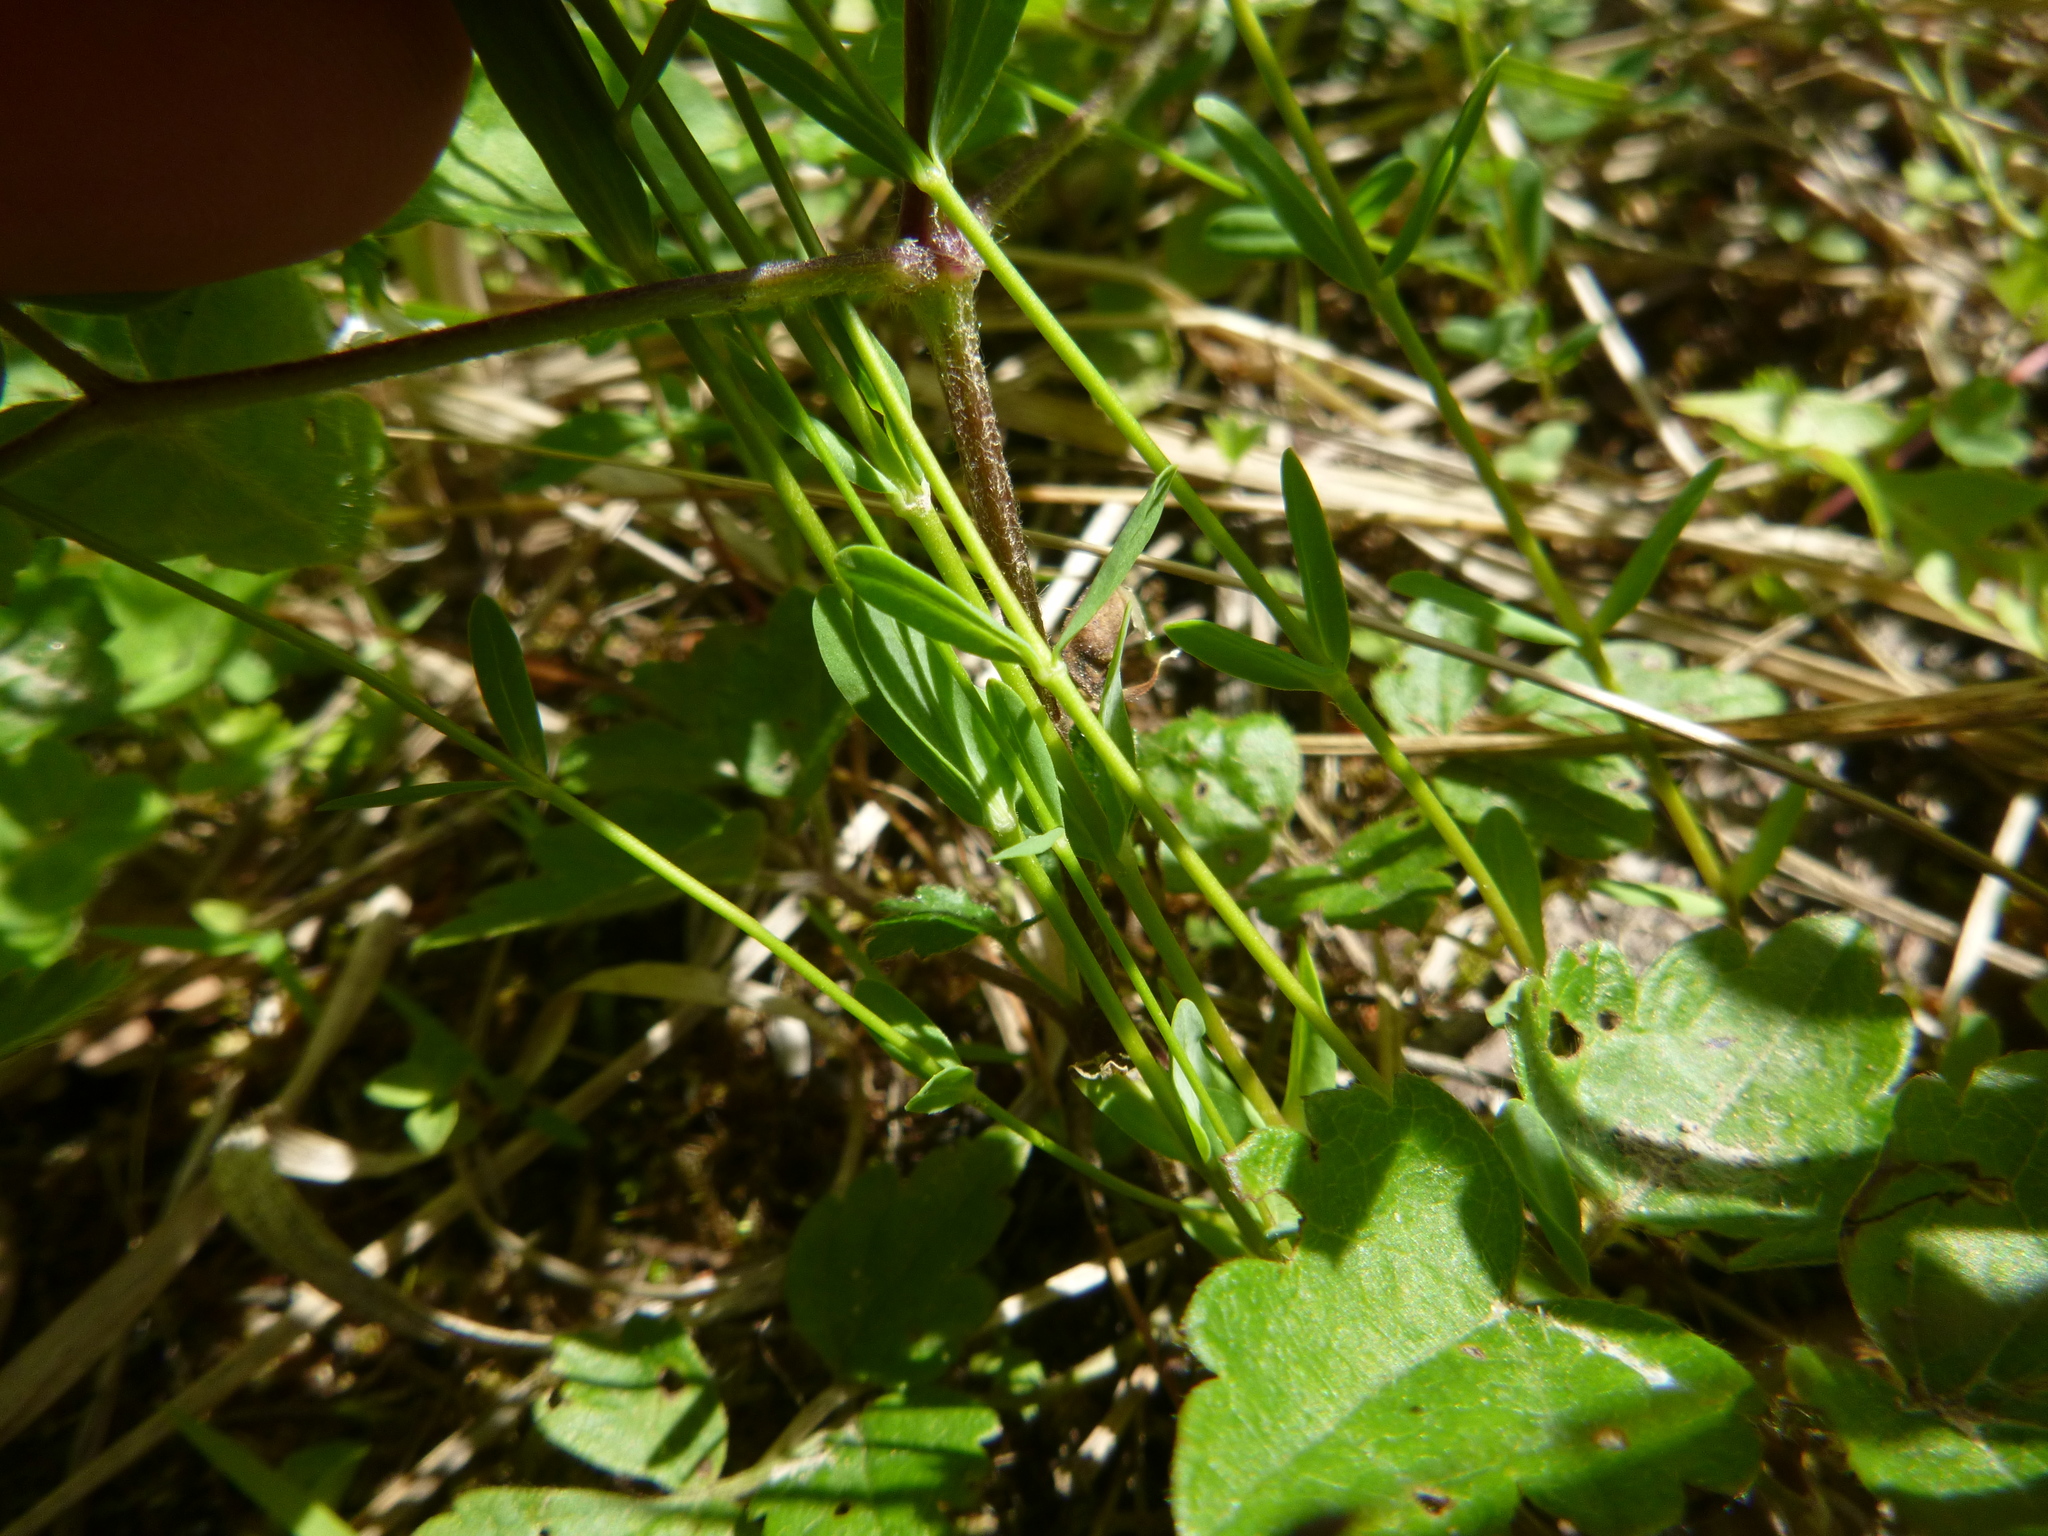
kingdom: Plantae
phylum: Tracheophyta
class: Magnoliopsida
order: Malpighiales
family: Linaceae
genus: Linum
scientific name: Linum catharticum
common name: Fairy flax
